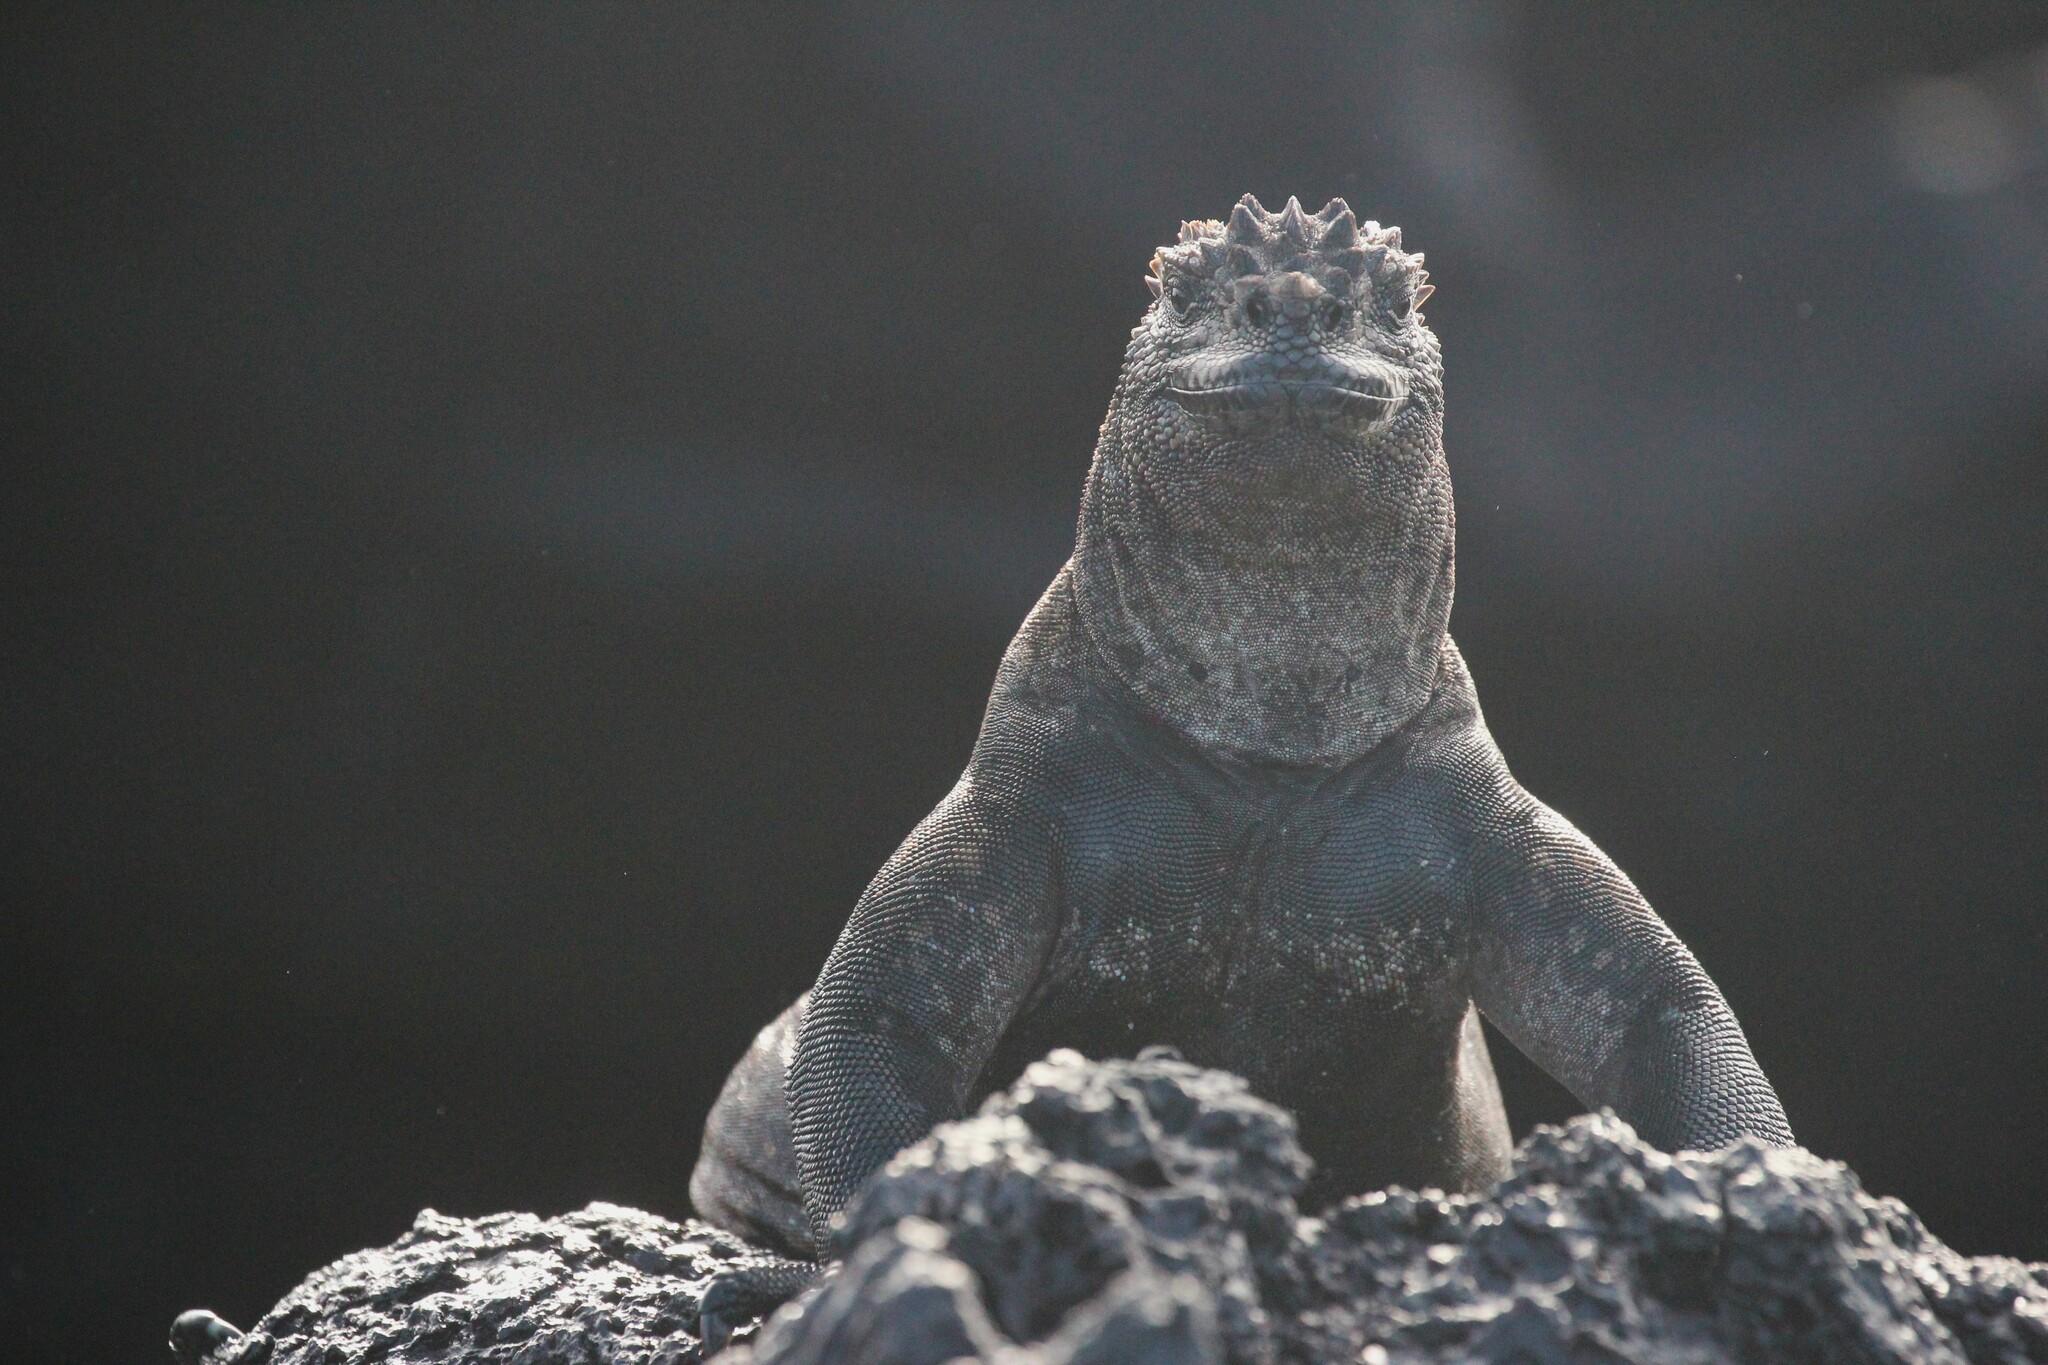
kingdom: Animalia
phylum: Chordata
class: Squamata
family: Iguanidae
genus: Amblyrhynchus
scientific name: Amblyrhynchus cristatus
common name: Marine iguana
